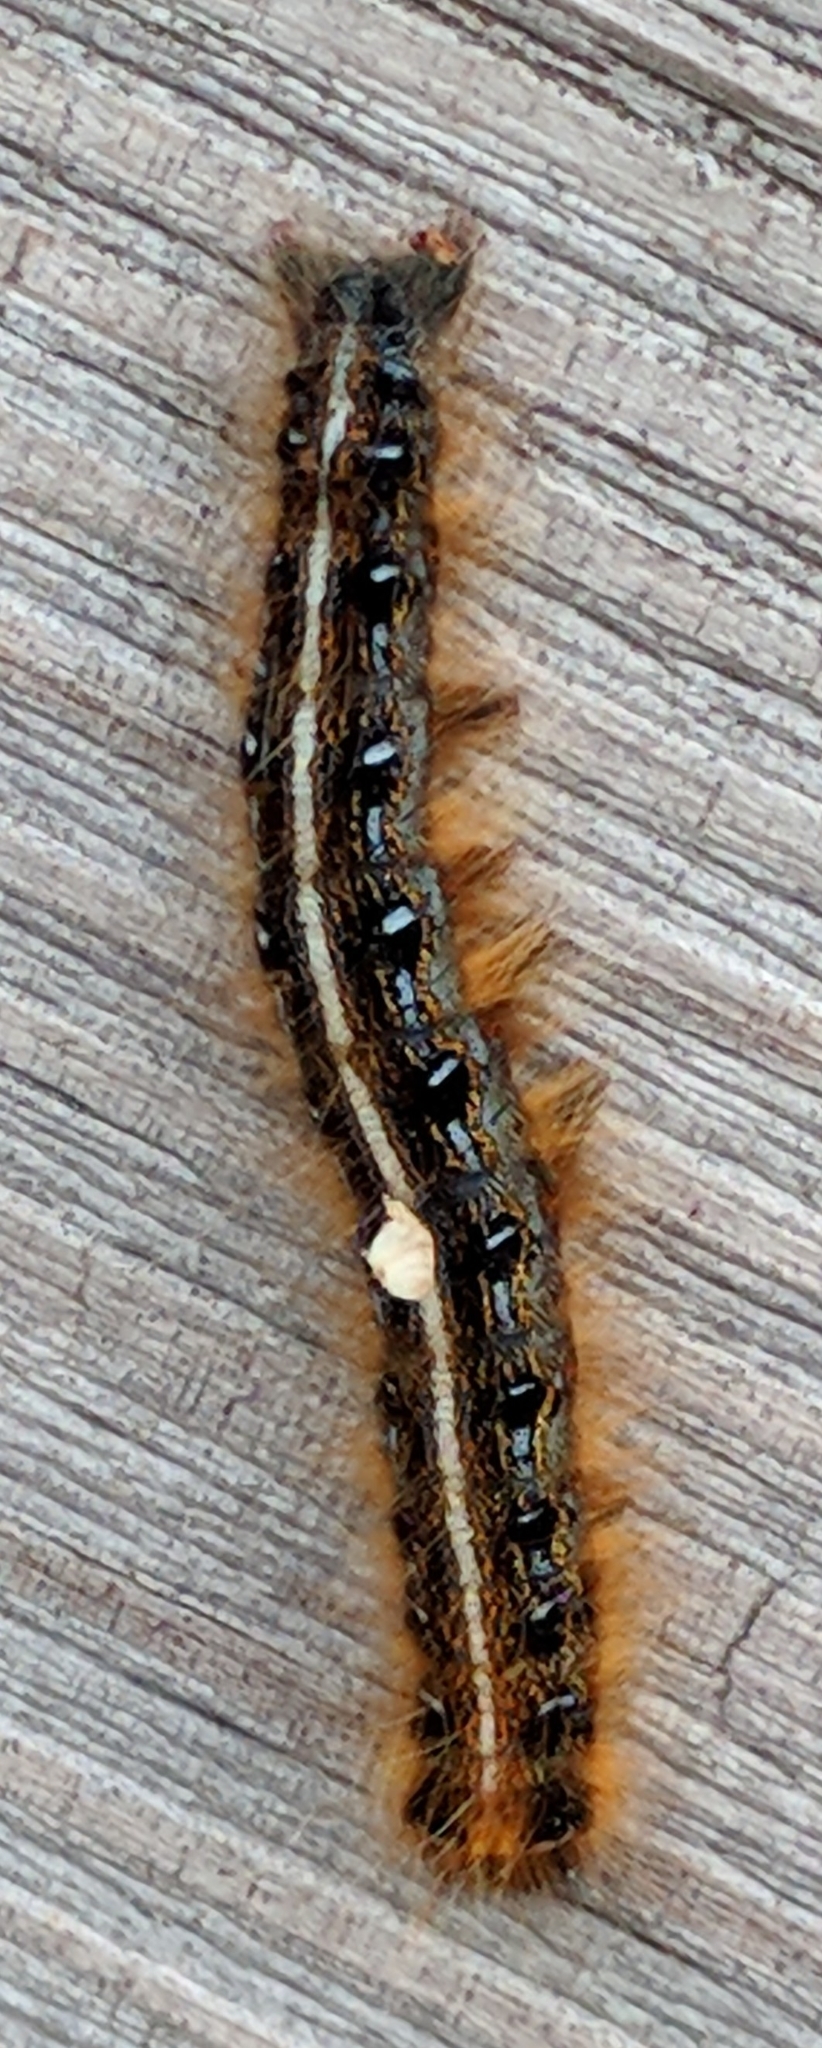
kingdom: Animalia
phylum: Arthropoda
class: Insecta
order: Lepidoptera
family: Lasiocampidae
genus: Malacosoma
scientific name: Malacosoma americana
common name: Eastern tent caterpillar moth
